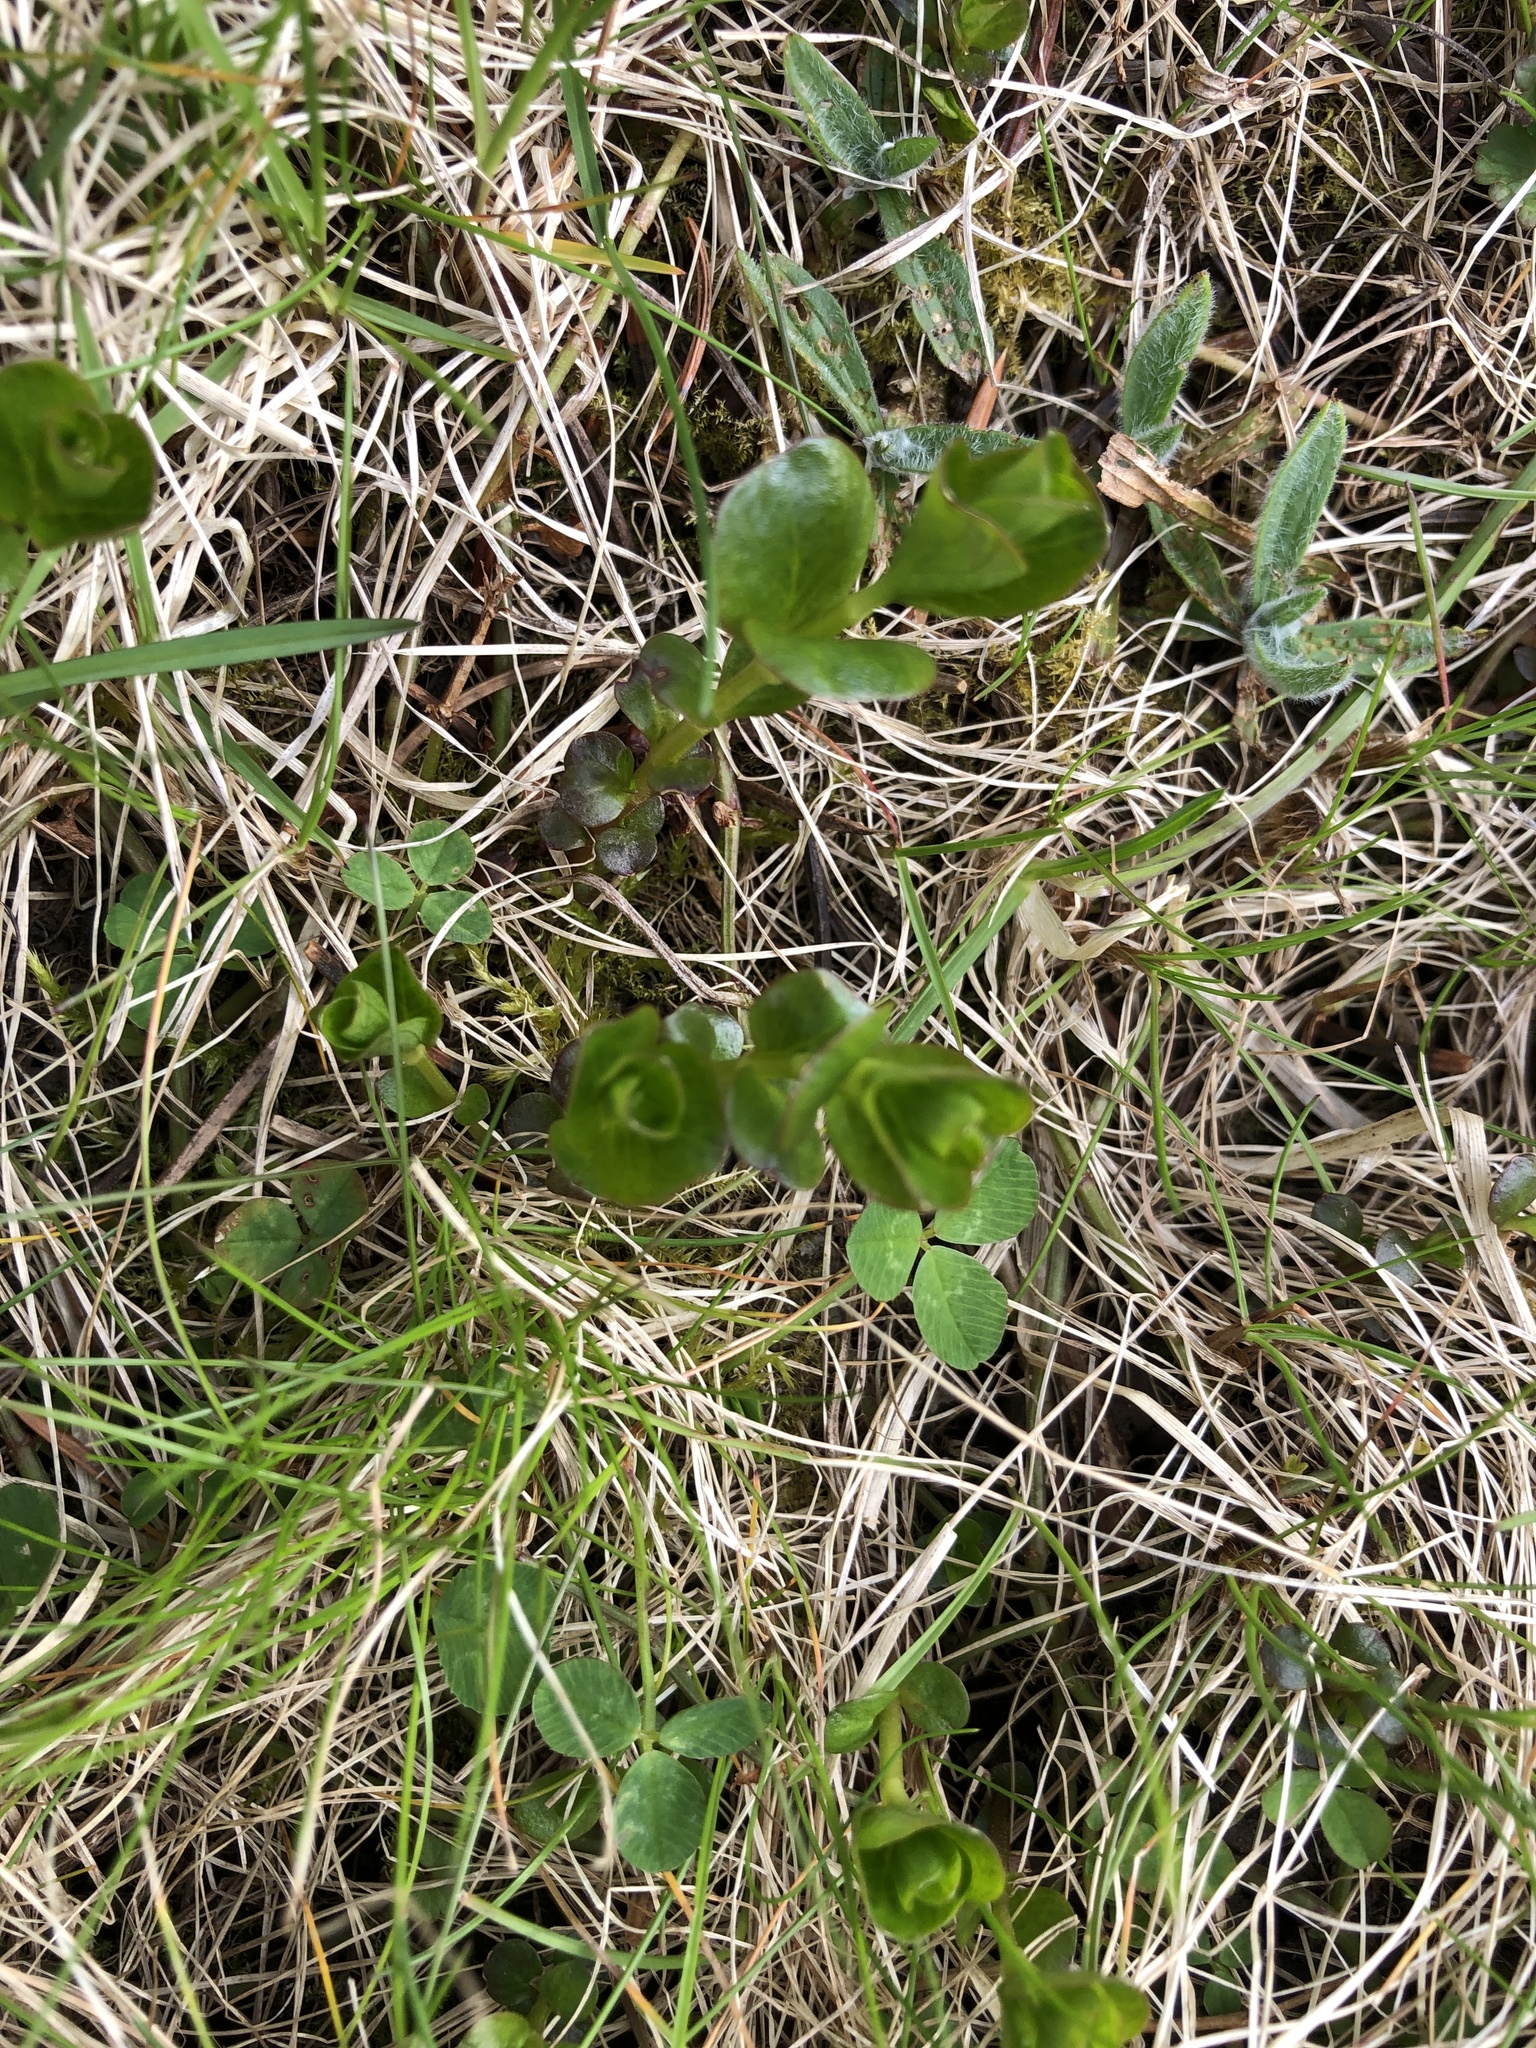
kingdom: Plantae
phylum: Tracheophyta
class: Magnoliopsida
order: Ericales
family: Primulaceae
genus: Lysimachia
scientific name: Lysimachia nummularia
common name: Moneywort
